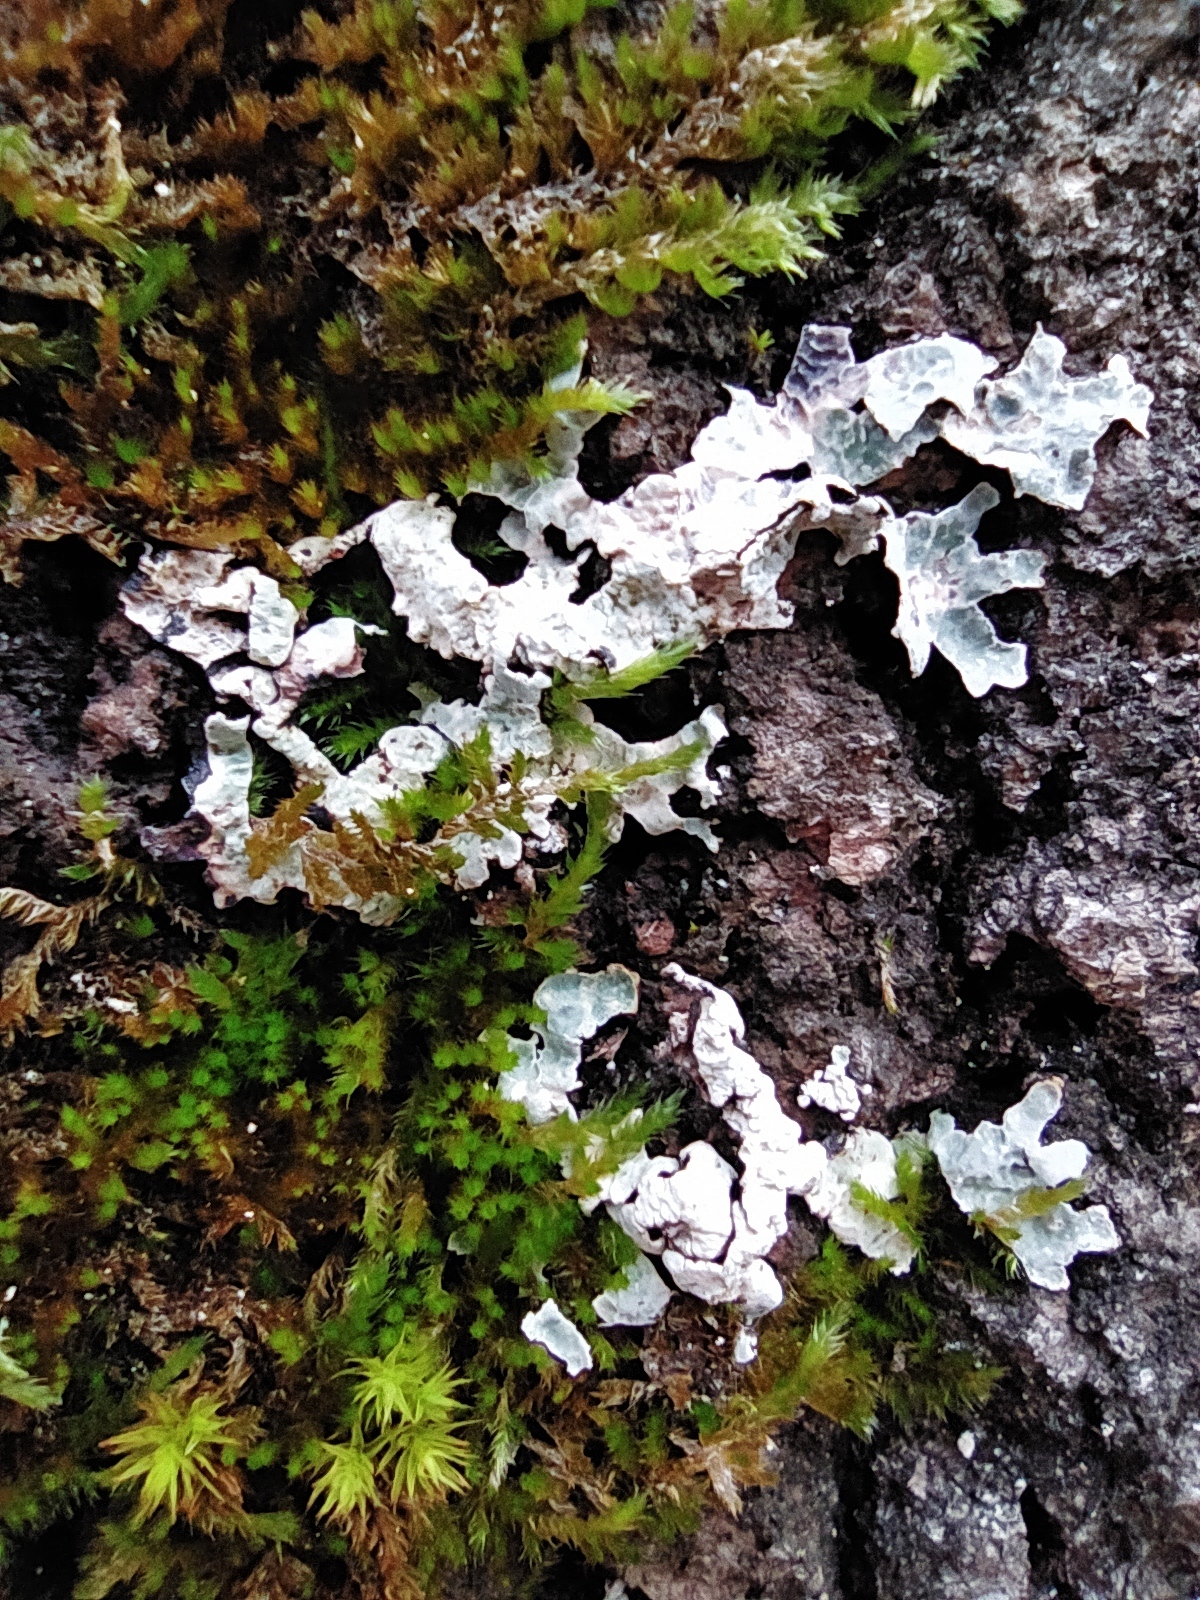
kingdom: Fungi
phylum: Ascomycota
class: Lecanoromycetes
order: Lecanorales
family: Parmeliaceae
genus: Parmelia
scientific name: Parmelia sulcata
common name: Netted shield lichen
